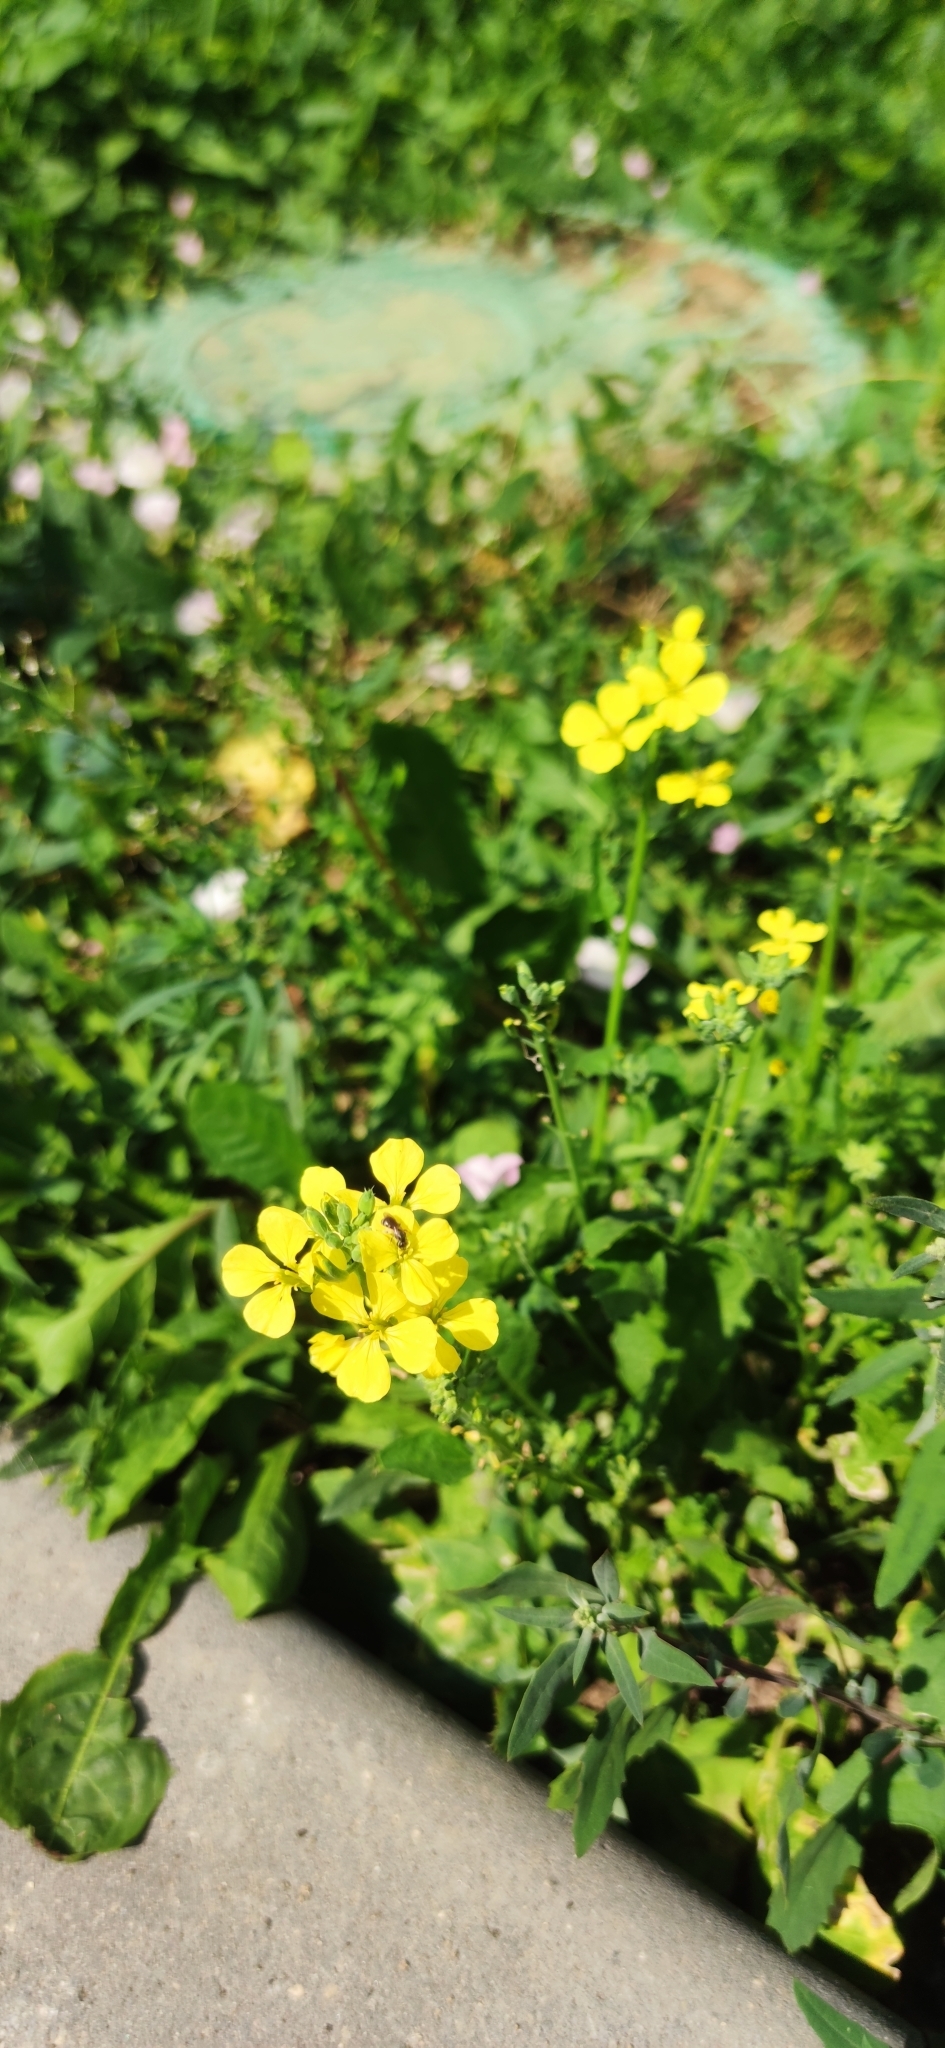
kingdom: Plantae
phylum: Tracheophyta
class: Magnoliopsida
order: Brassicales
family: Brassicaceae
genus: Sinapis
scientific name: Sinapis arvensis
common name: Charlock
